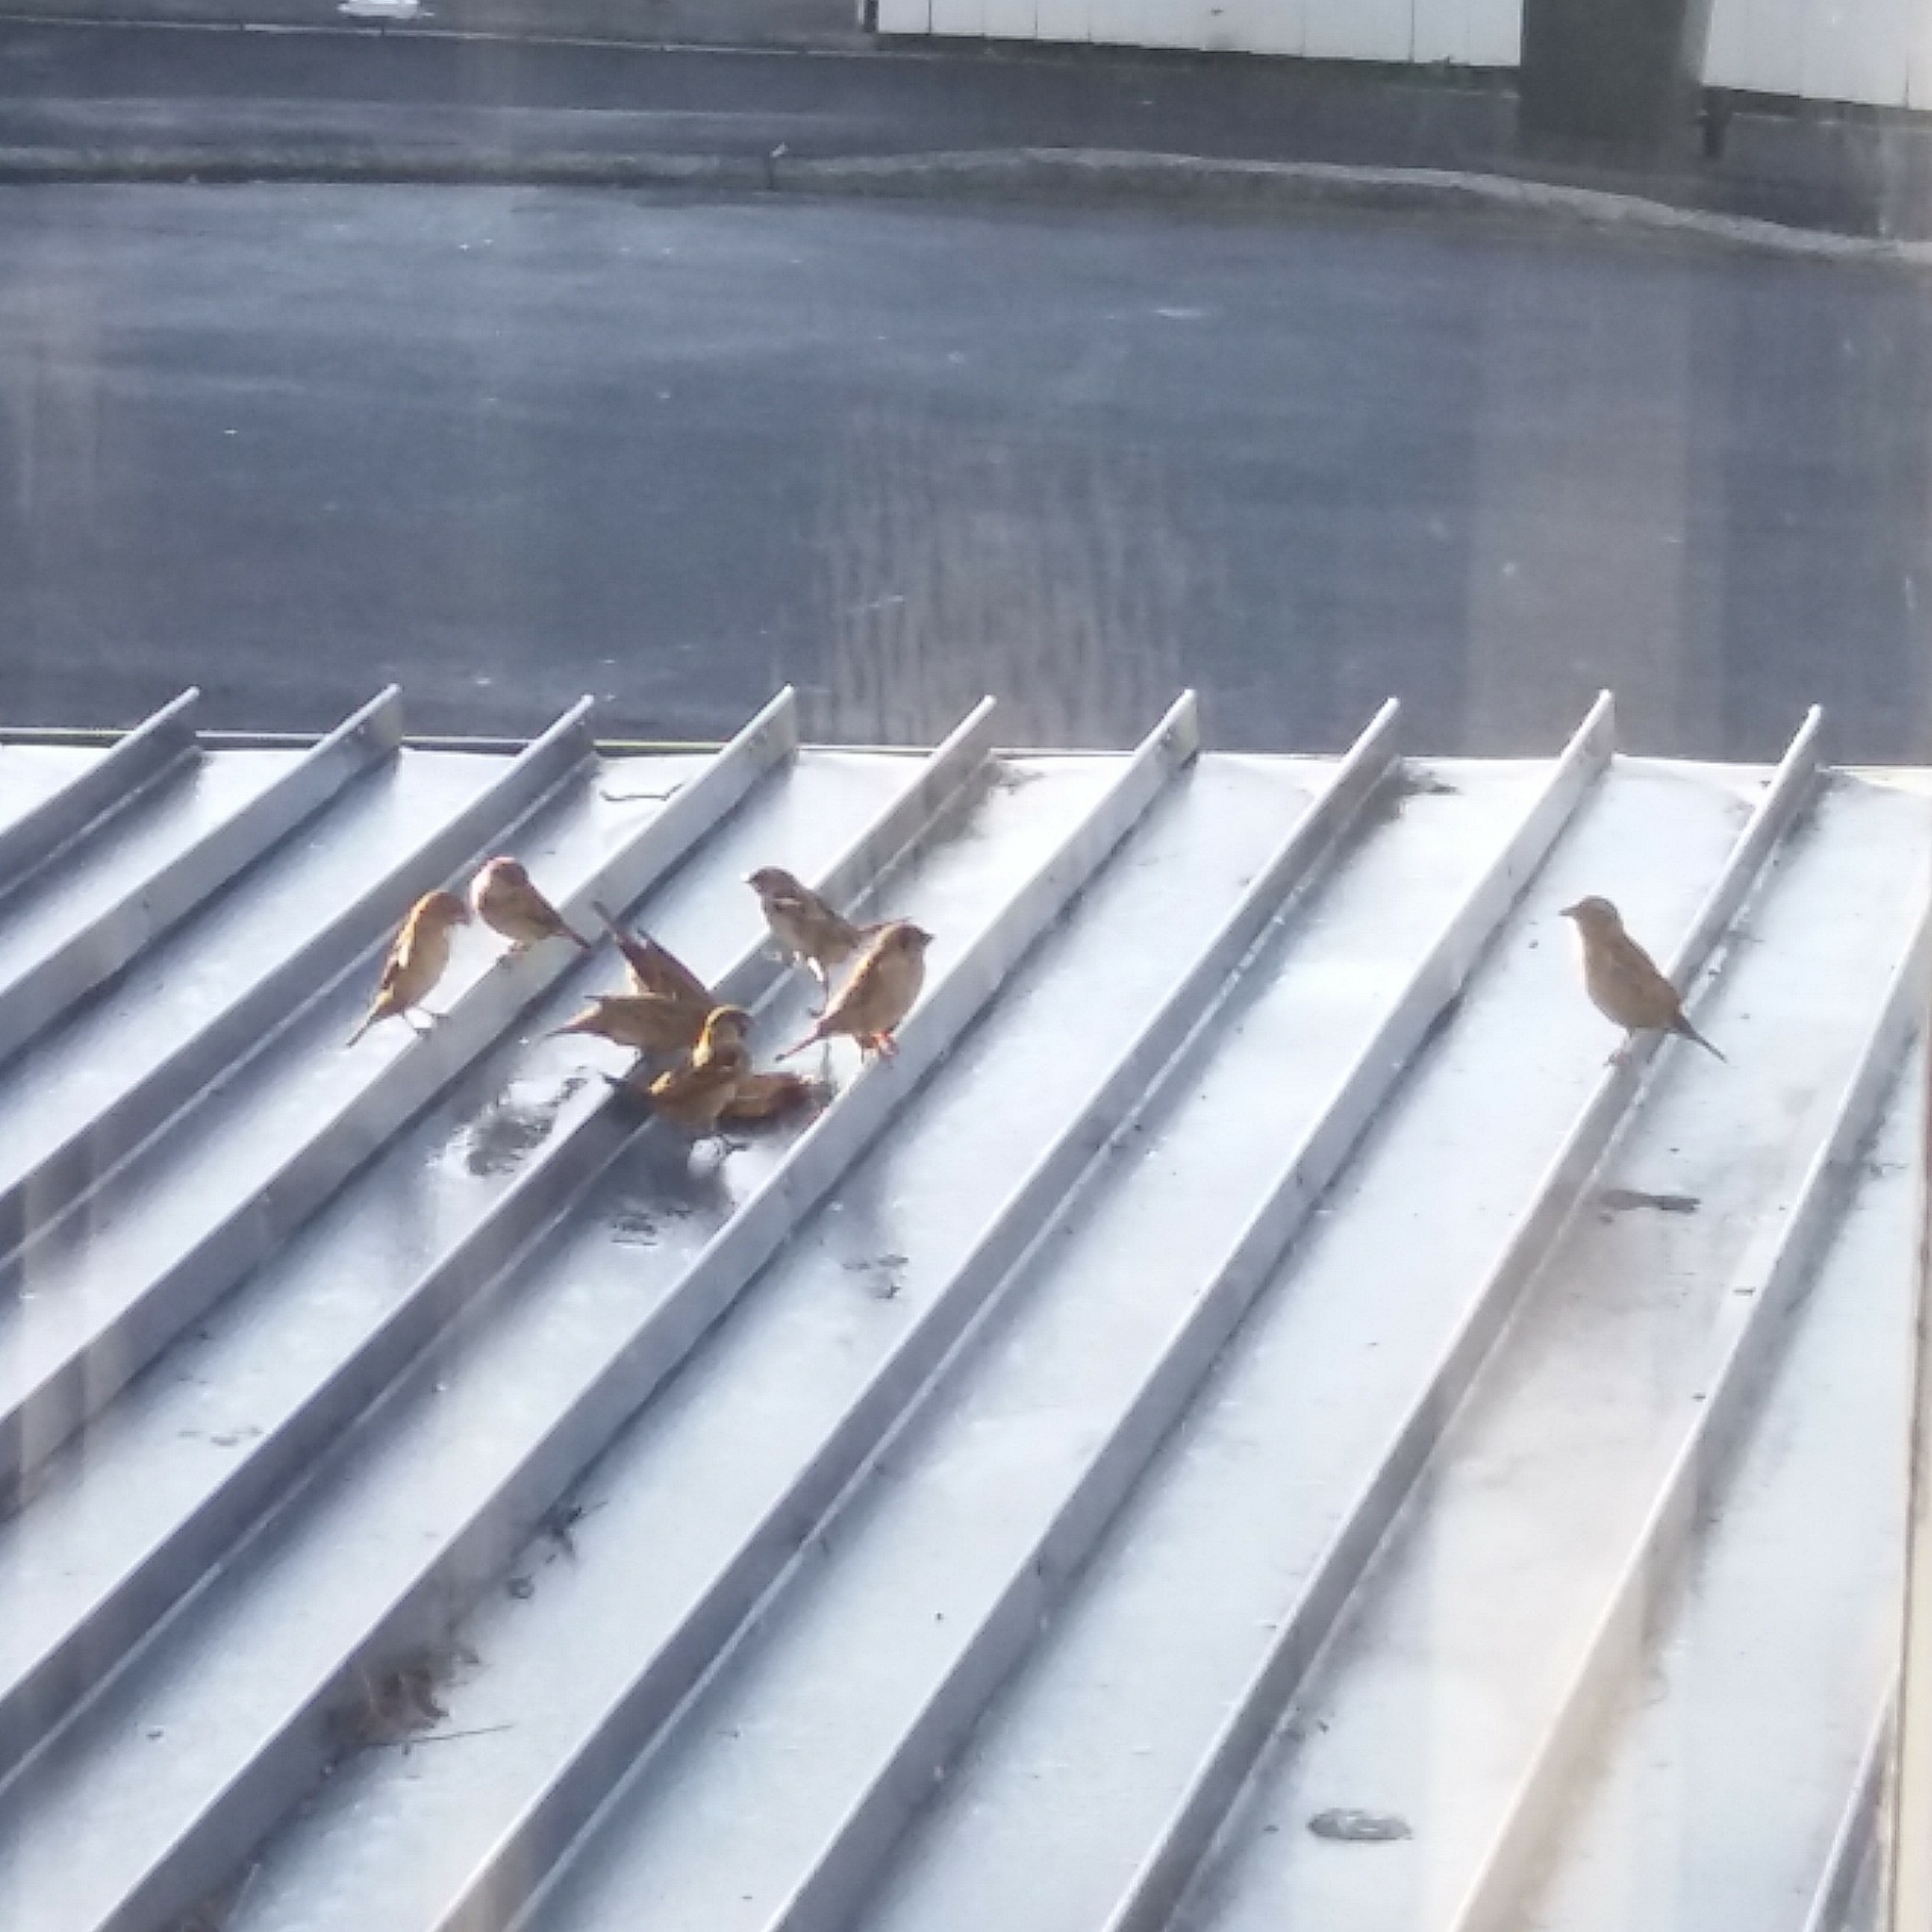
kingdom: Animalia
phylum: Chordata
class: Aves
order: Passeriformes
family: Passeridae
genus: Passer
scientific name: Passer domesticus
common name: House sparrow
